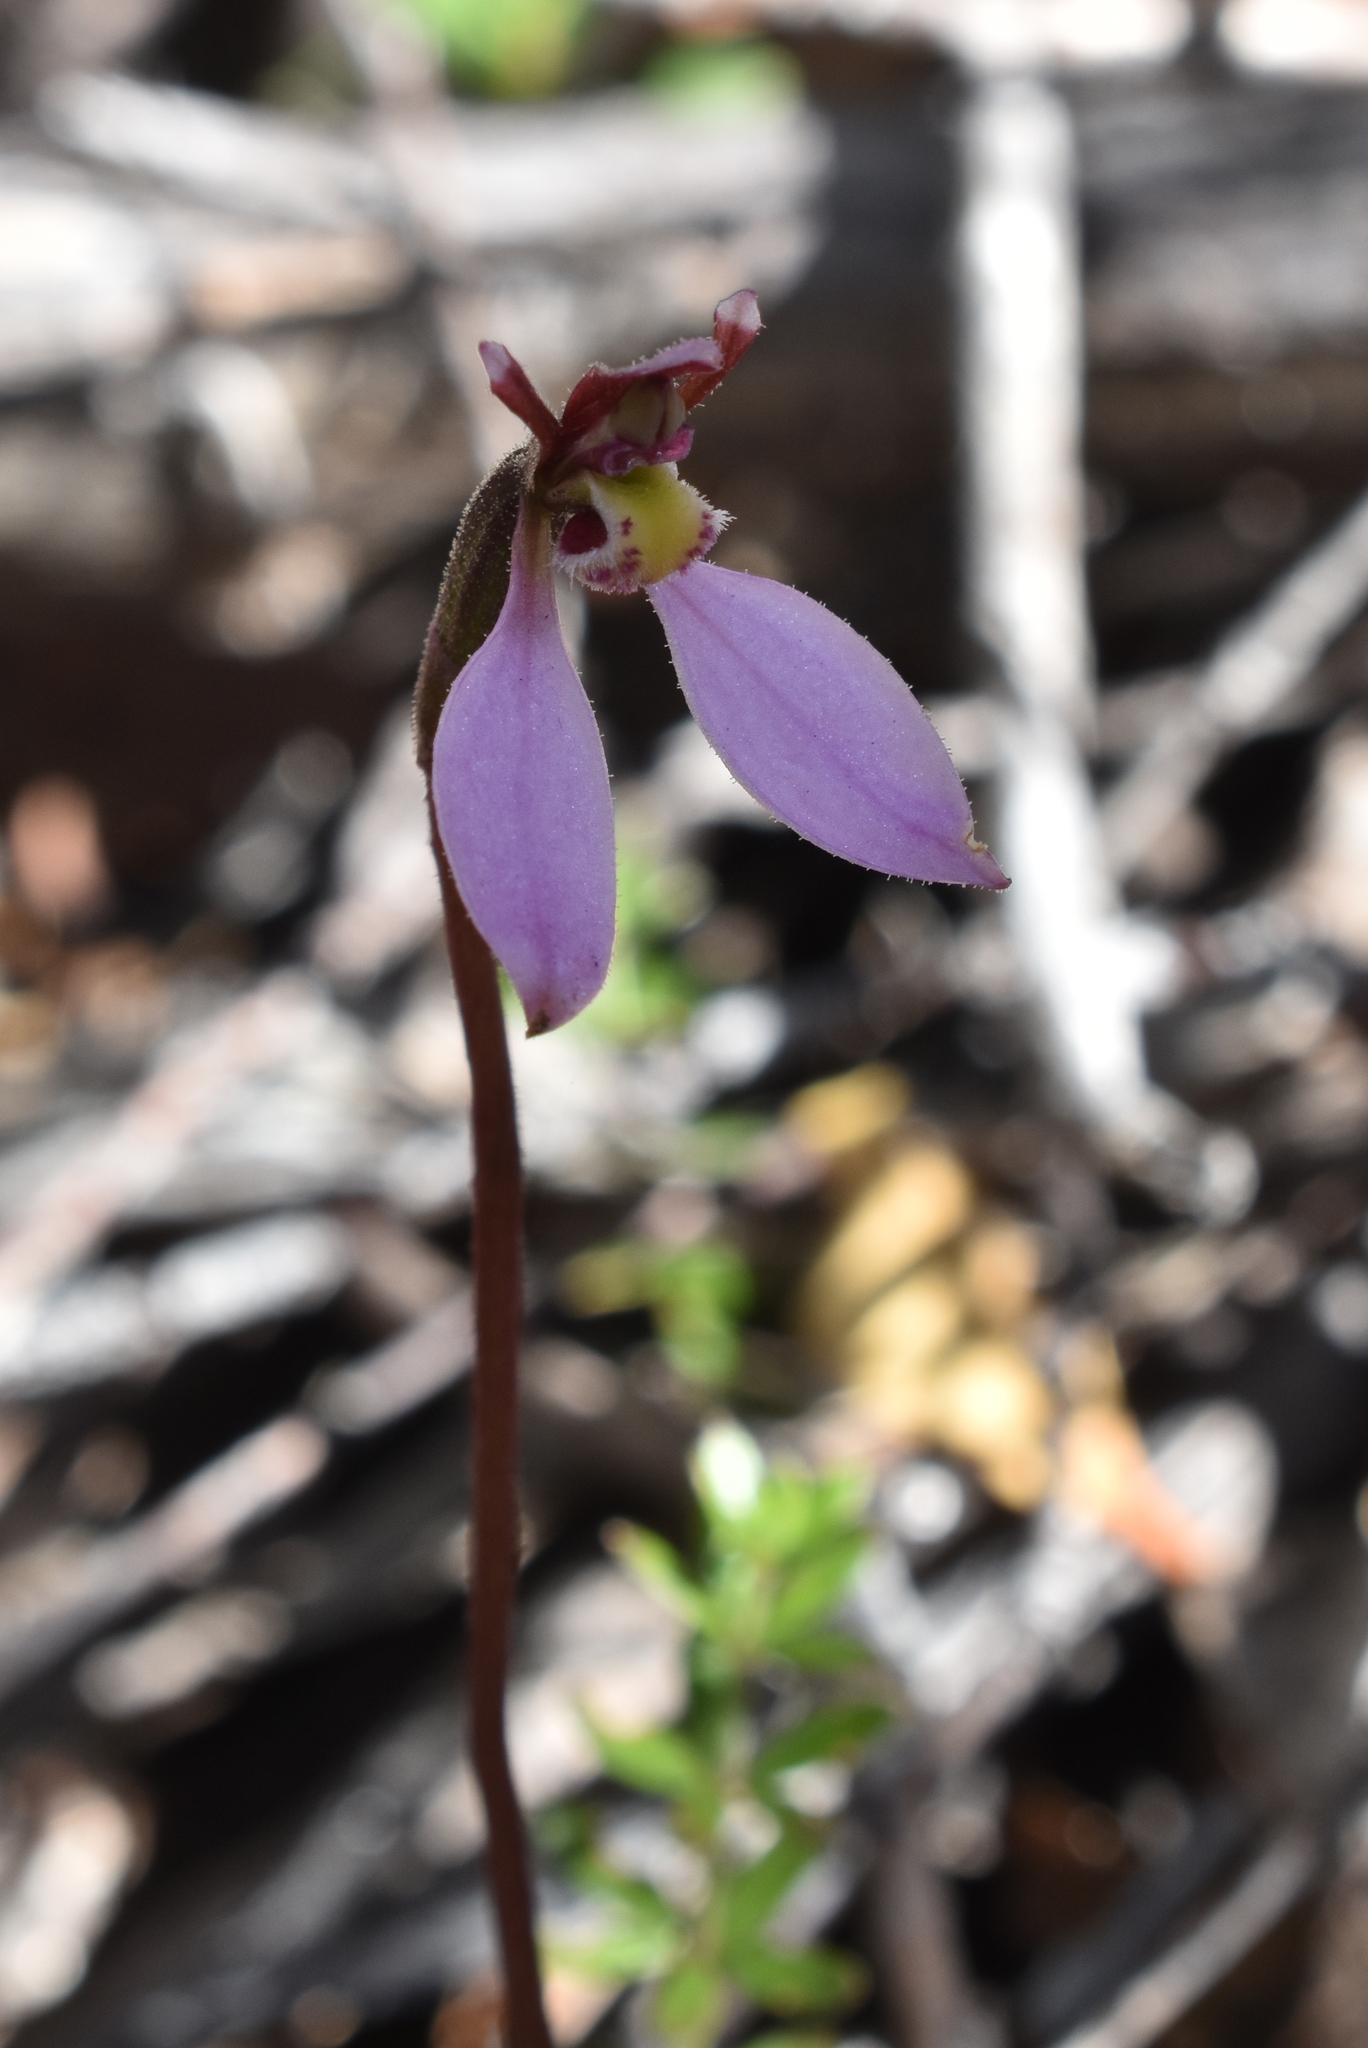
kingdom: Plantae
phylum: Tracheophyta
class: Liliopsida
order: Asparagales
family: Orchidaceae
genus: Eriochilus
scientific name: Eriochilus cucullatus
